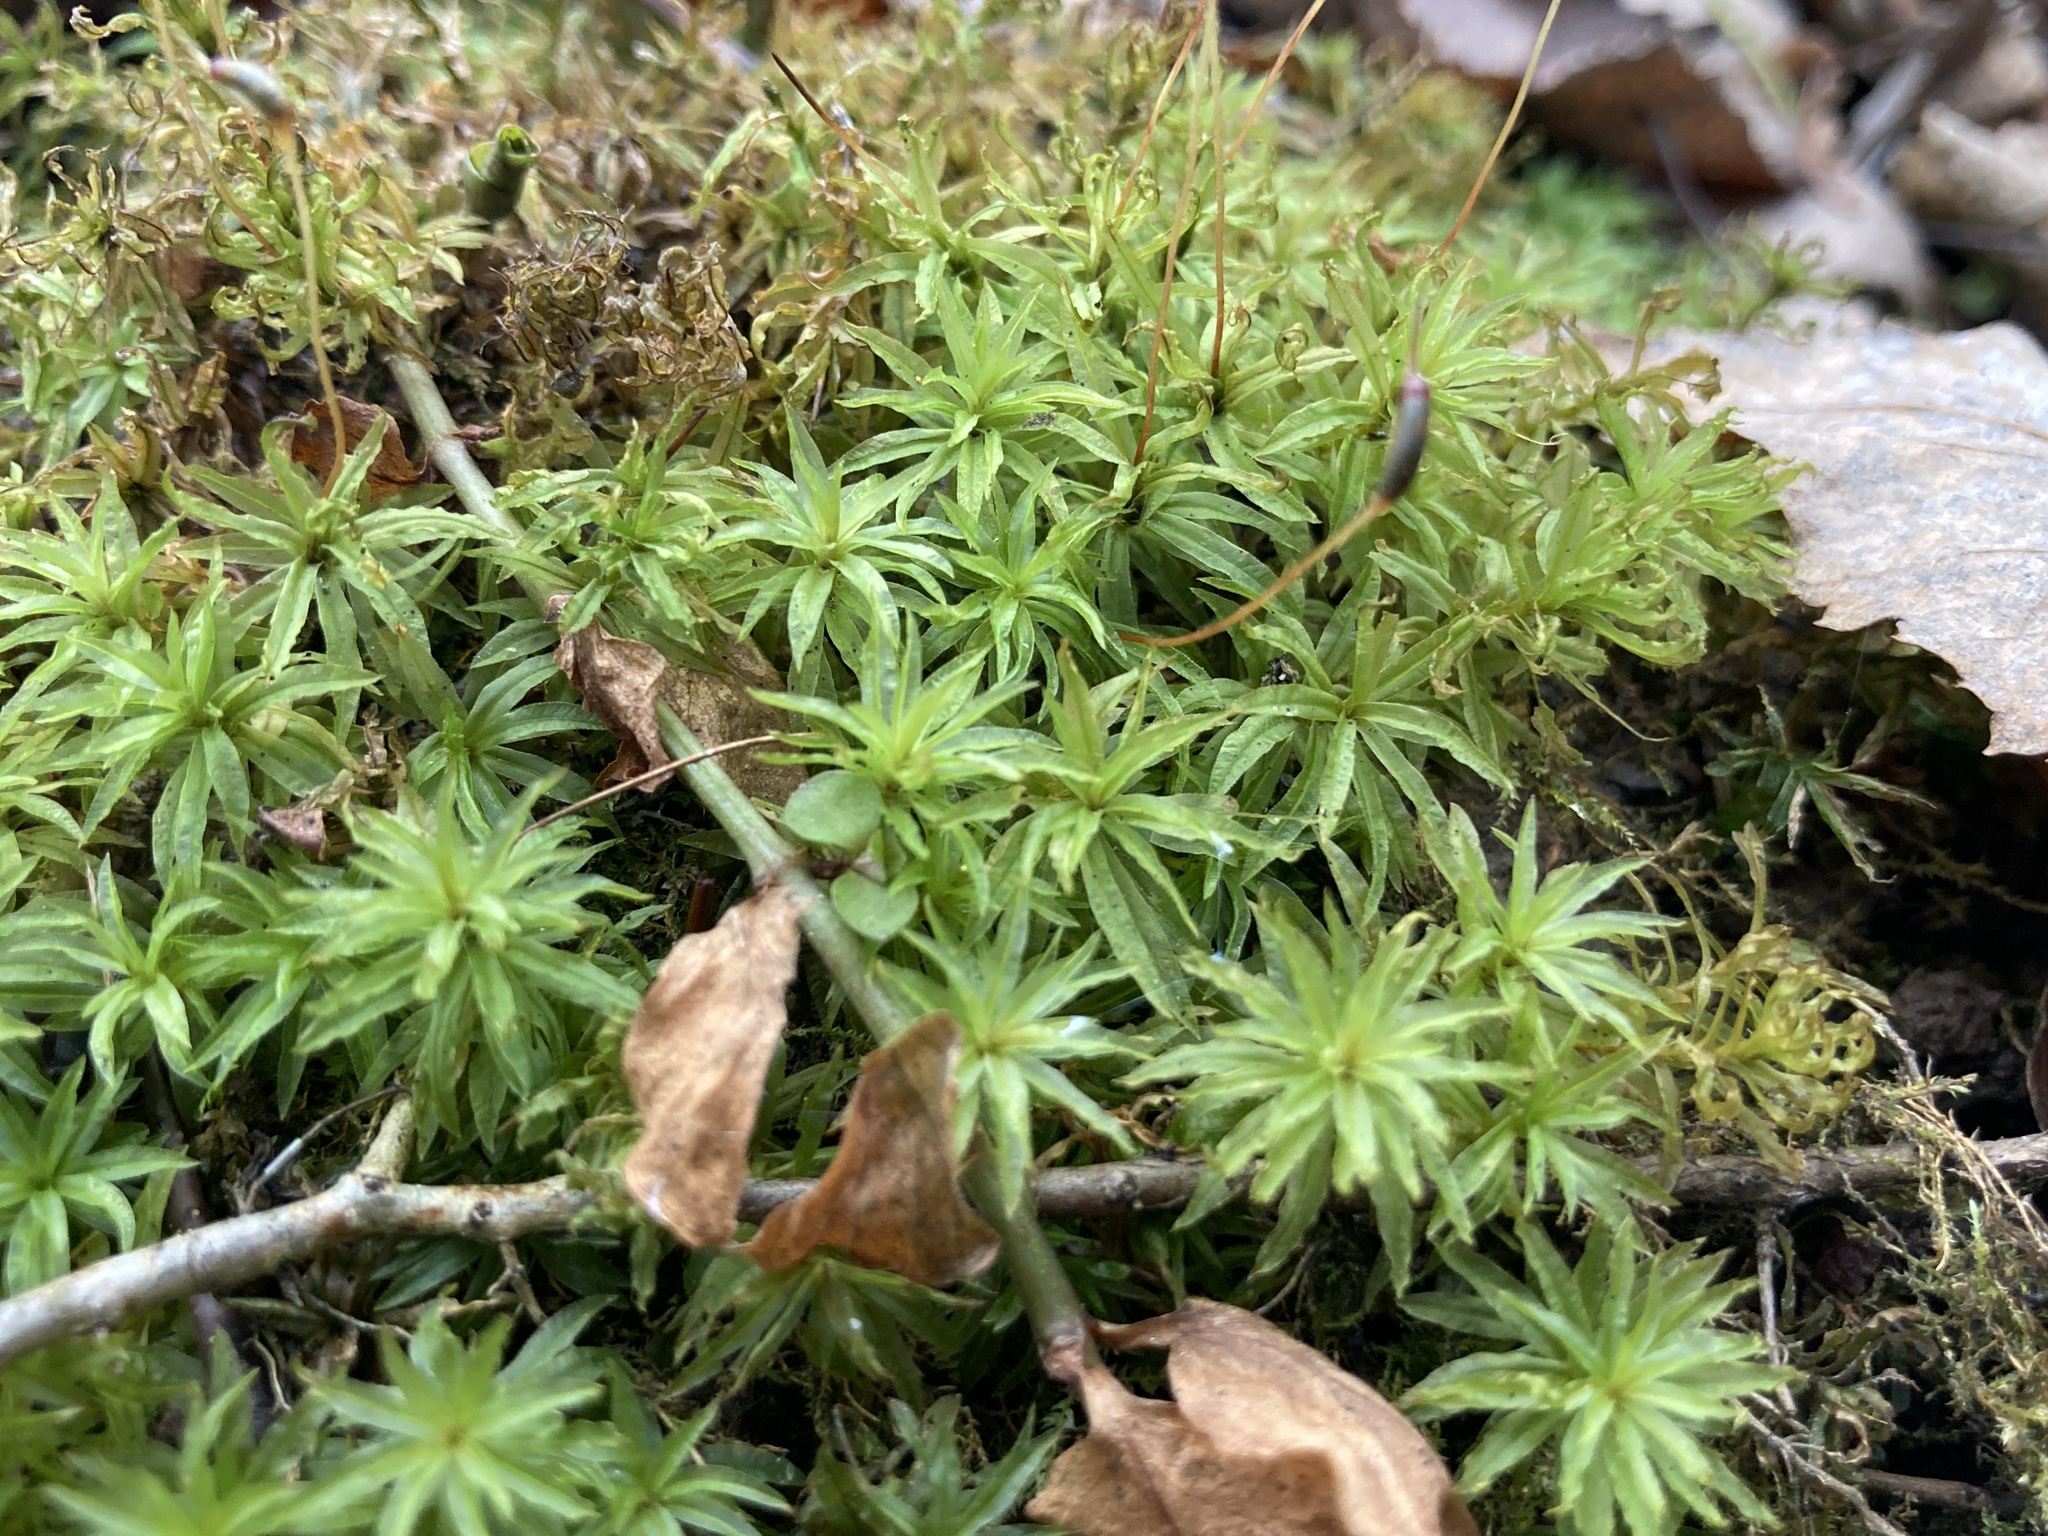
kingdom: Plantae
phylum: Bryophyta
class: Polytrichopsida
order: Polytrichales
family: Polytrichaceae
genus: Atrichum
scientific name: Atrichum undulatum
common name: Common smoothcap
